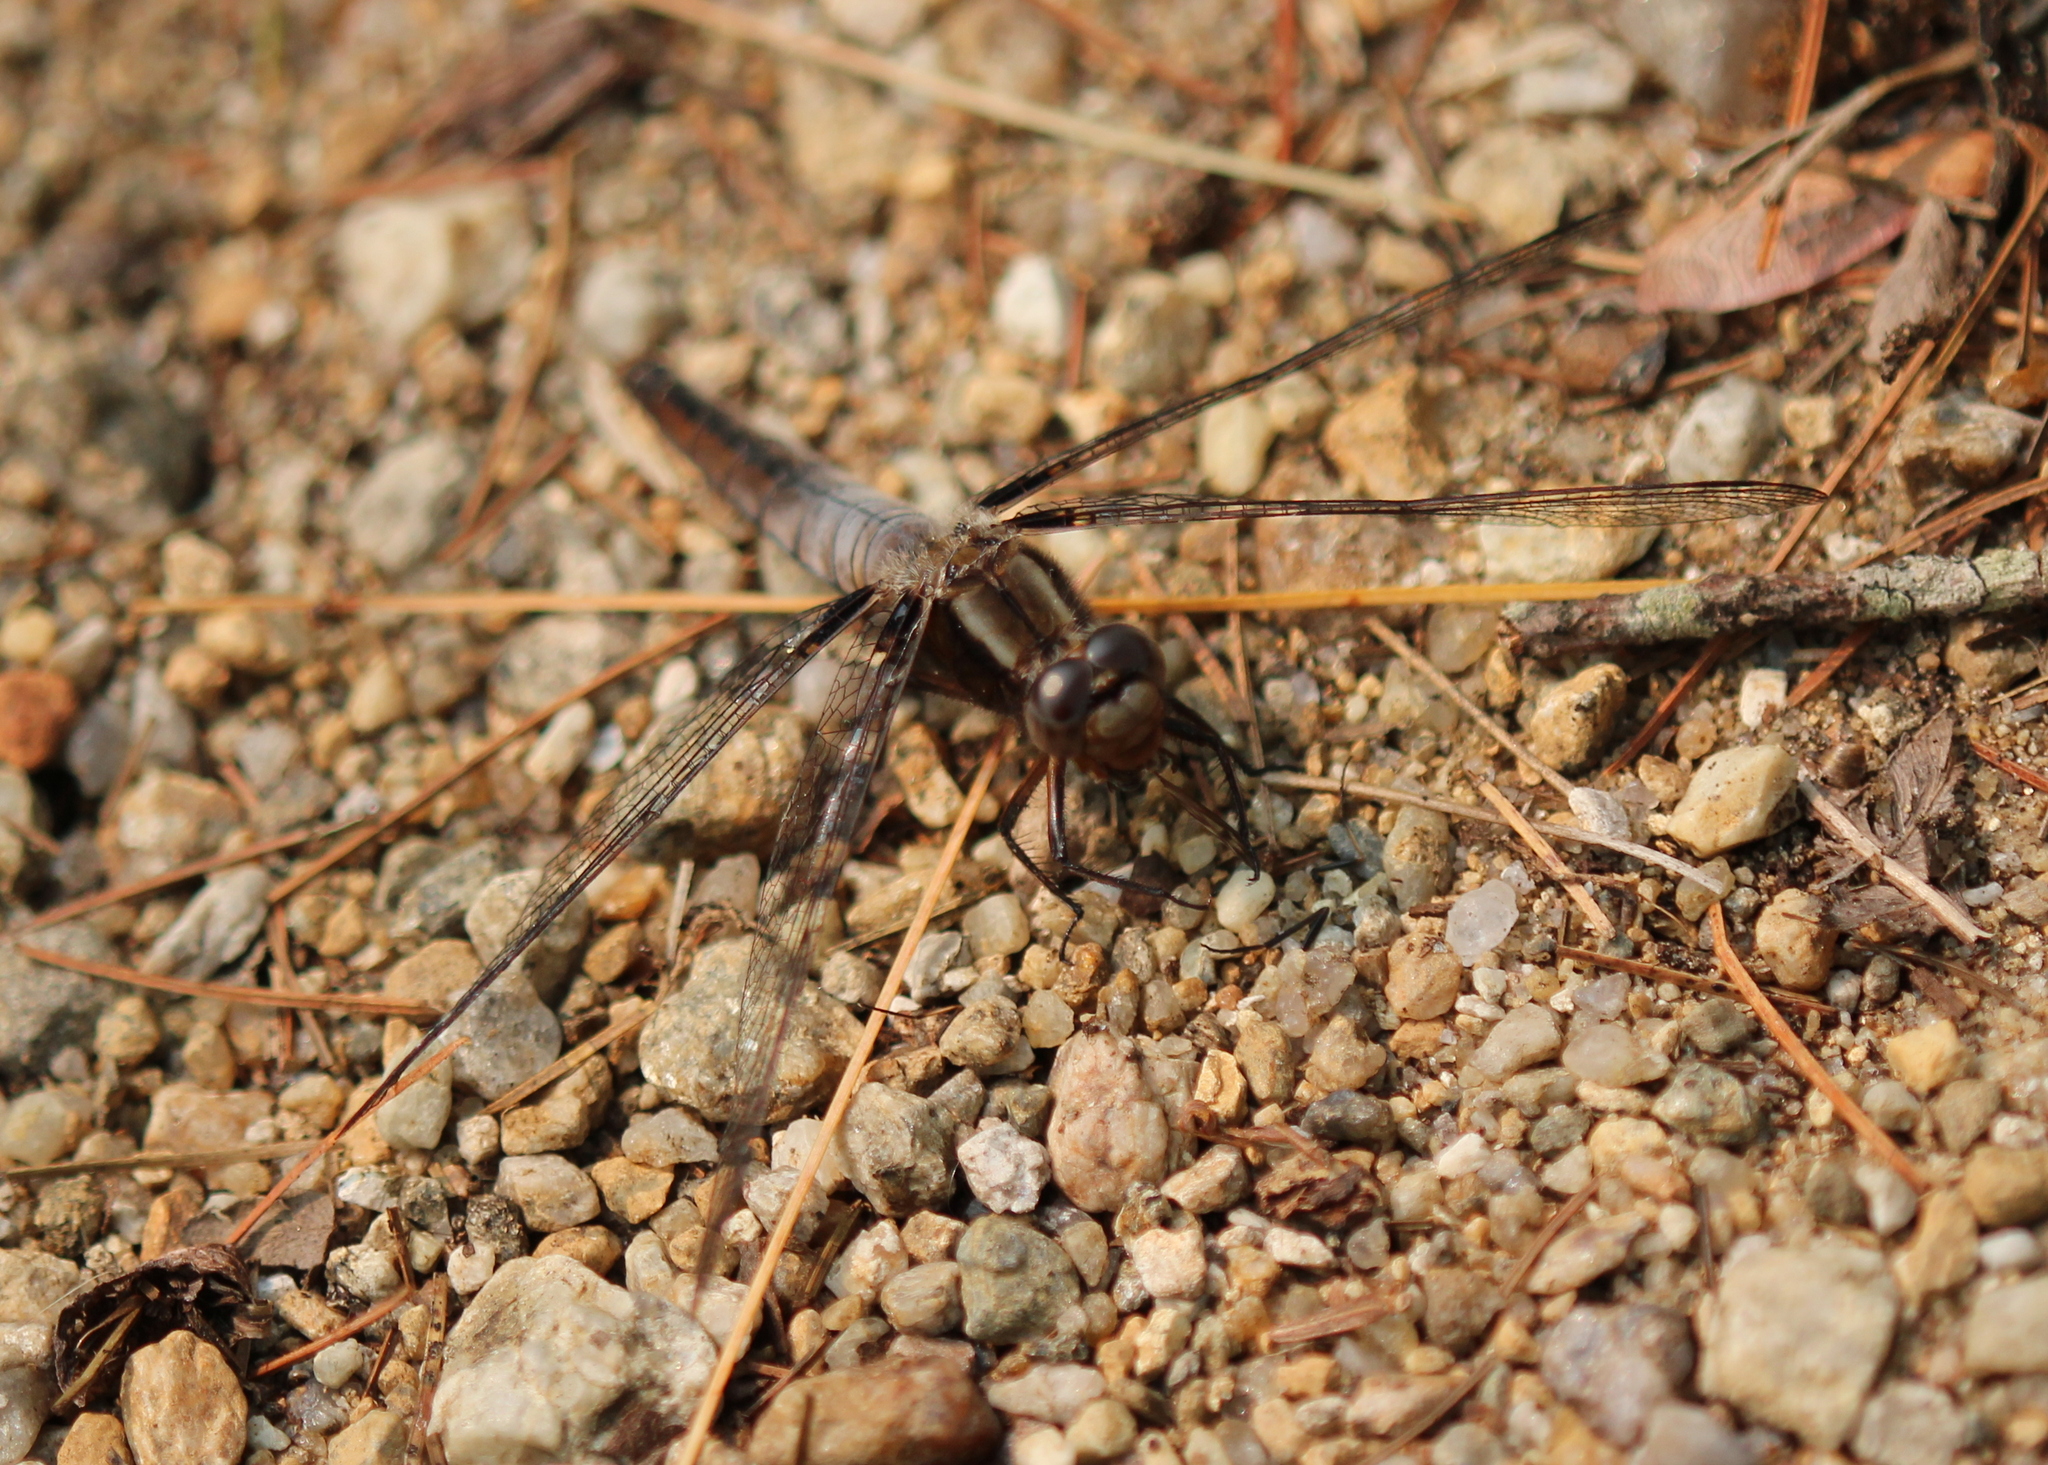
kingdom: Animalia
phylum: Arthropoda
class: Insecta
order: Odonata
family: Libellulidae
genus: Ladona
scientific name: Ladona julia
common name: Chalk-fronted corporal
